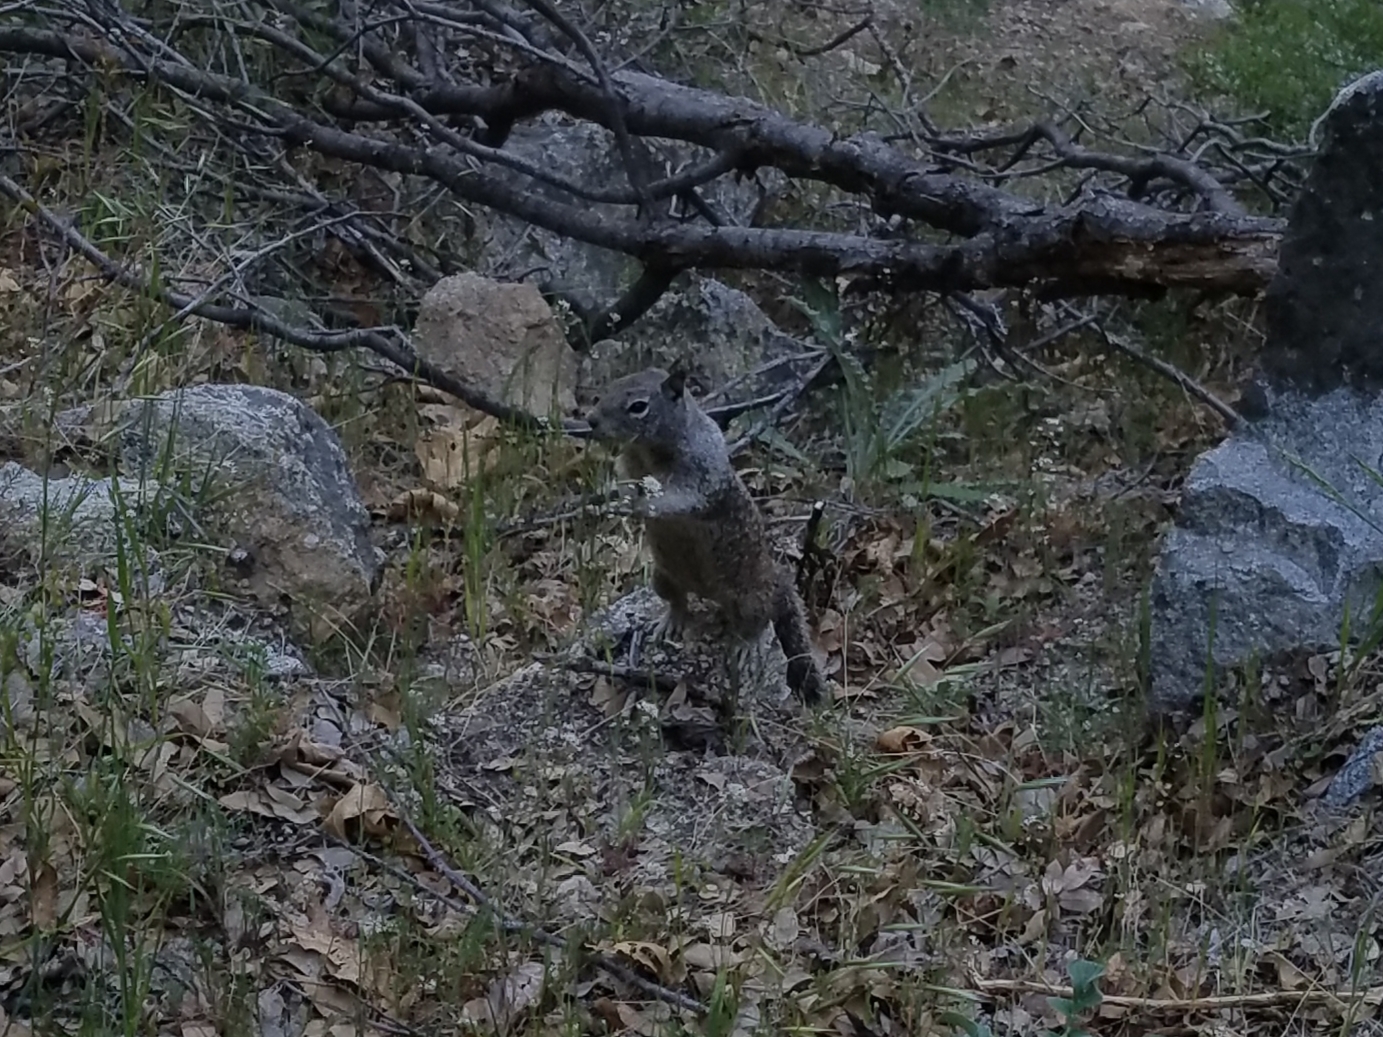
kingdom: Animalia
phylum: Chordata
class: Mammalia
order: Rodentia
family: Sciuridae
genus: Otospermophilus
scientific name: Otospermophilus beecheyi
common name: California ground squirrel
